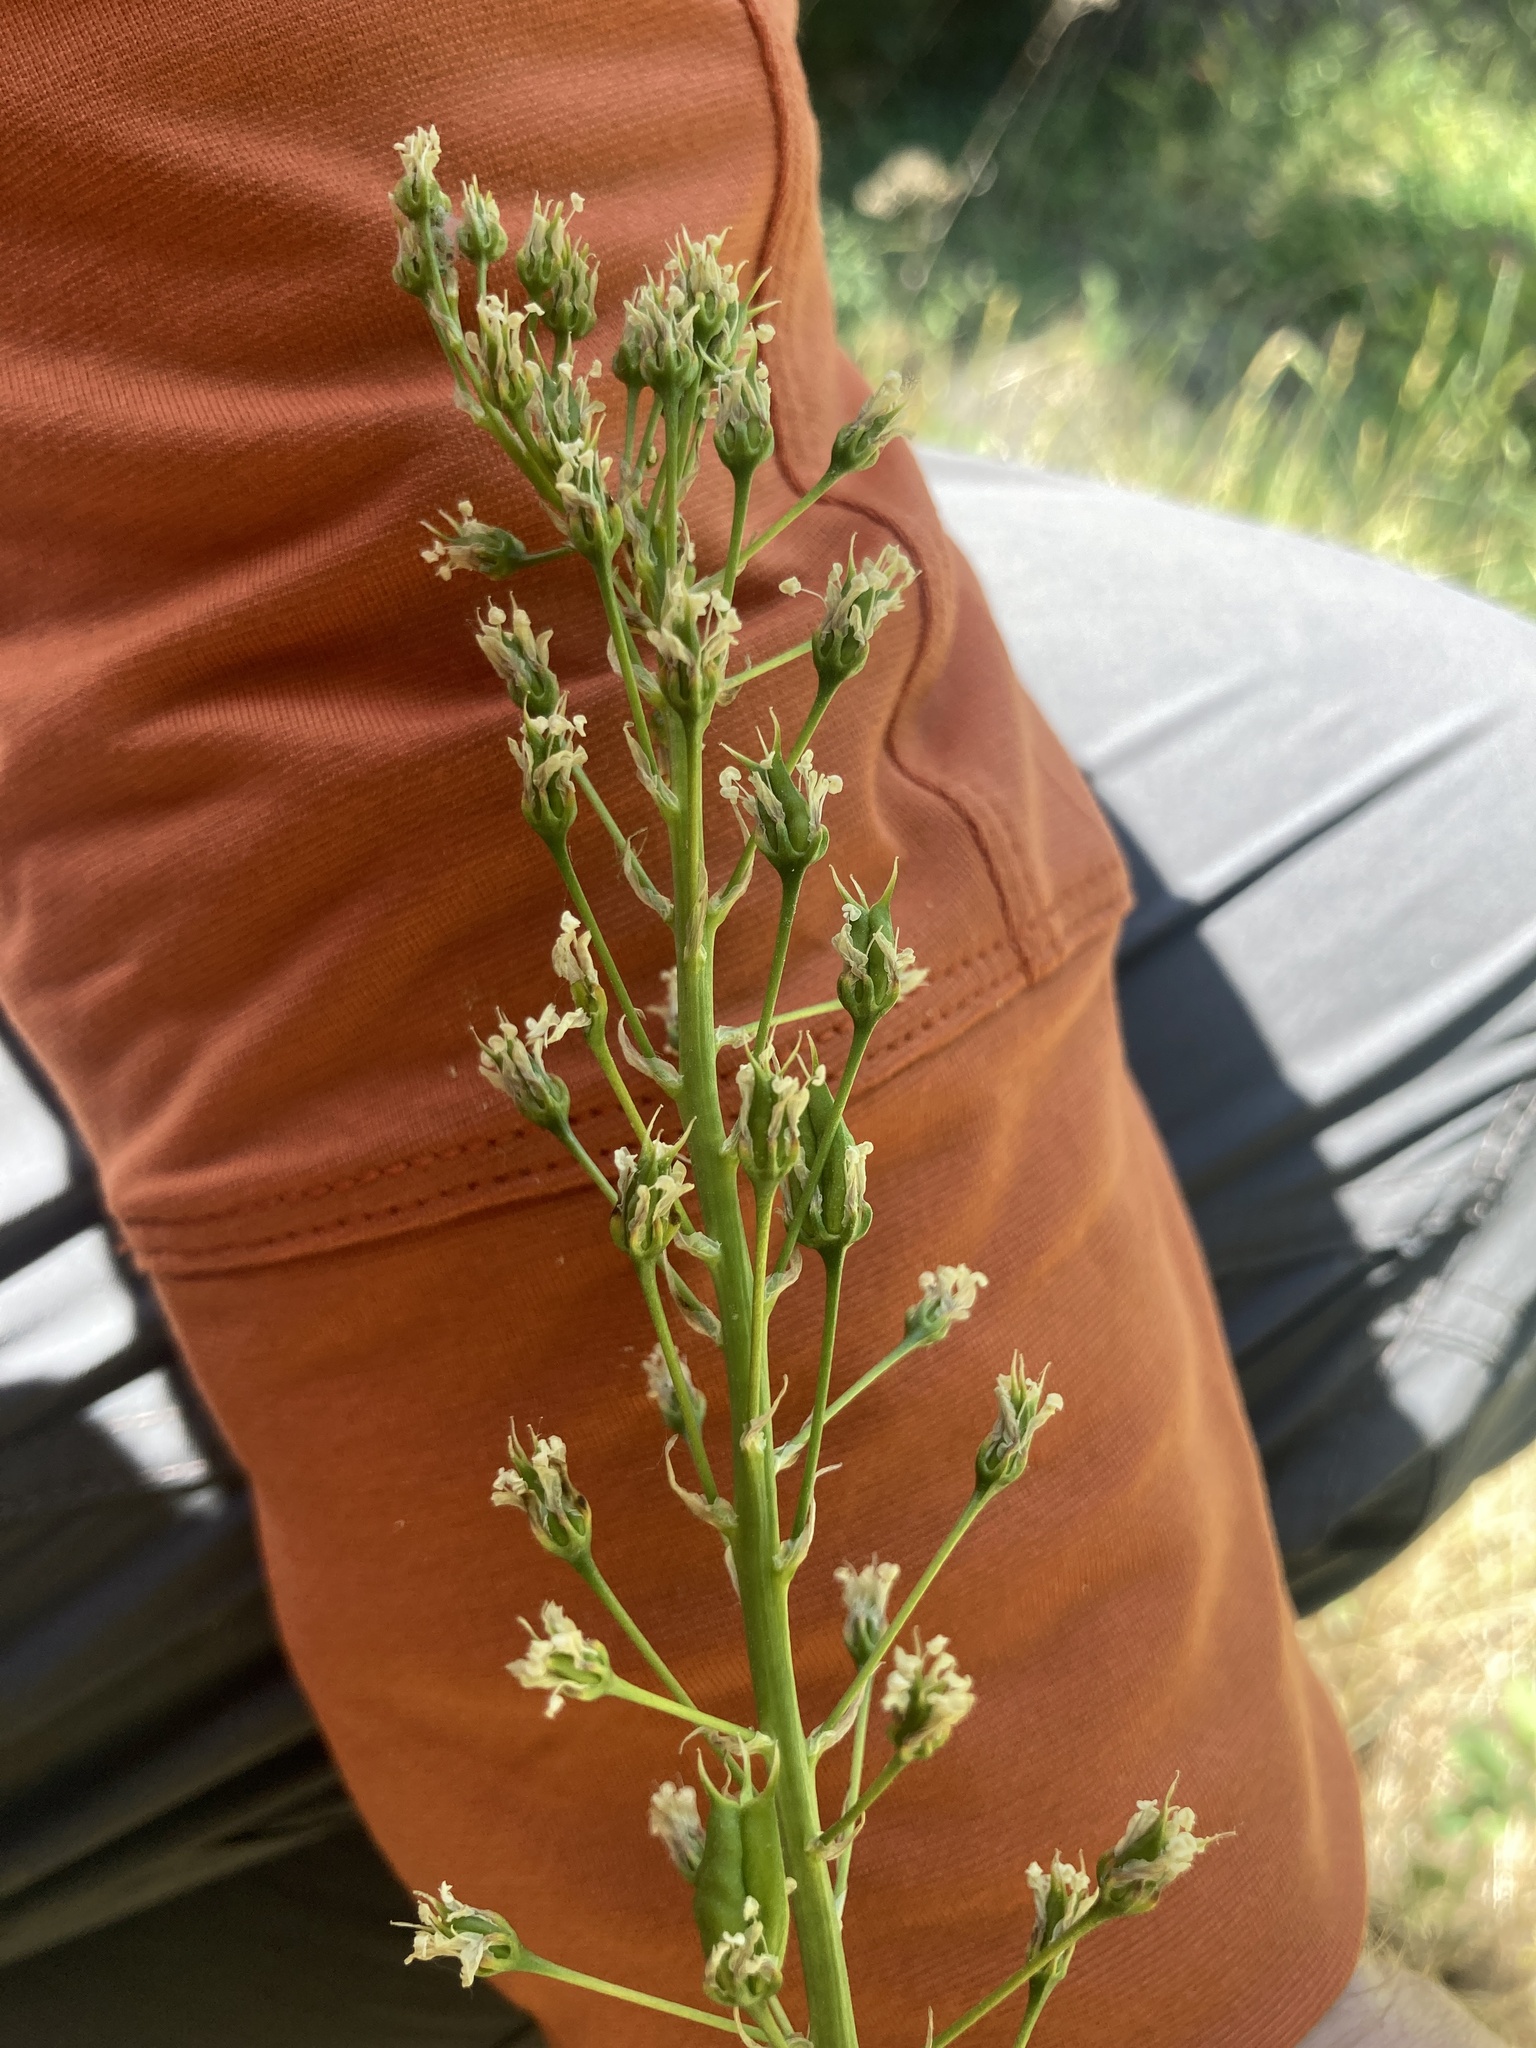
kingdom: Plantae
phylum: Tracheophyta
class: Liliopsida
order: Liliales
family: Melanthiaceae
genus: Toxicoscordion
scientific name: Toxicoscordion venenosum
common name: Meadow death camas
